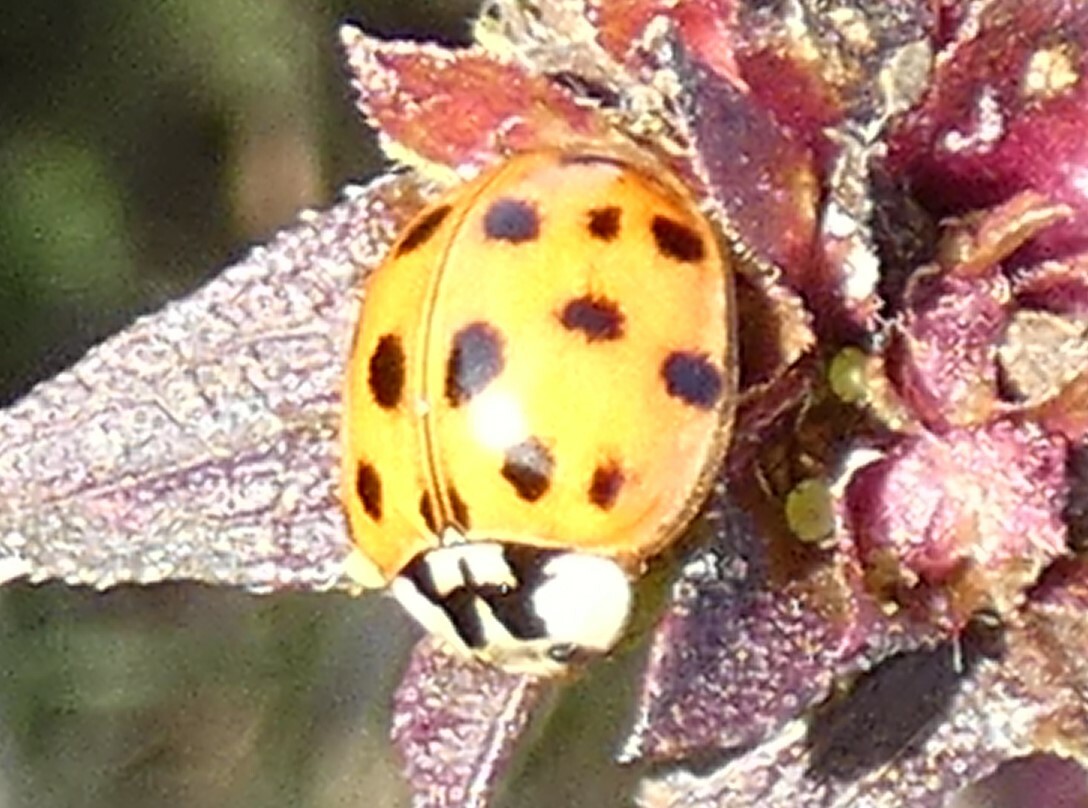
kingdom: Animalia
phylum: Arthropoda
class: Insecta
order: Coleoptera
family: Coccinellidae
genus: Harmonia
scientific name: Harmonia axyridis
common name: Harlequin ladybird
